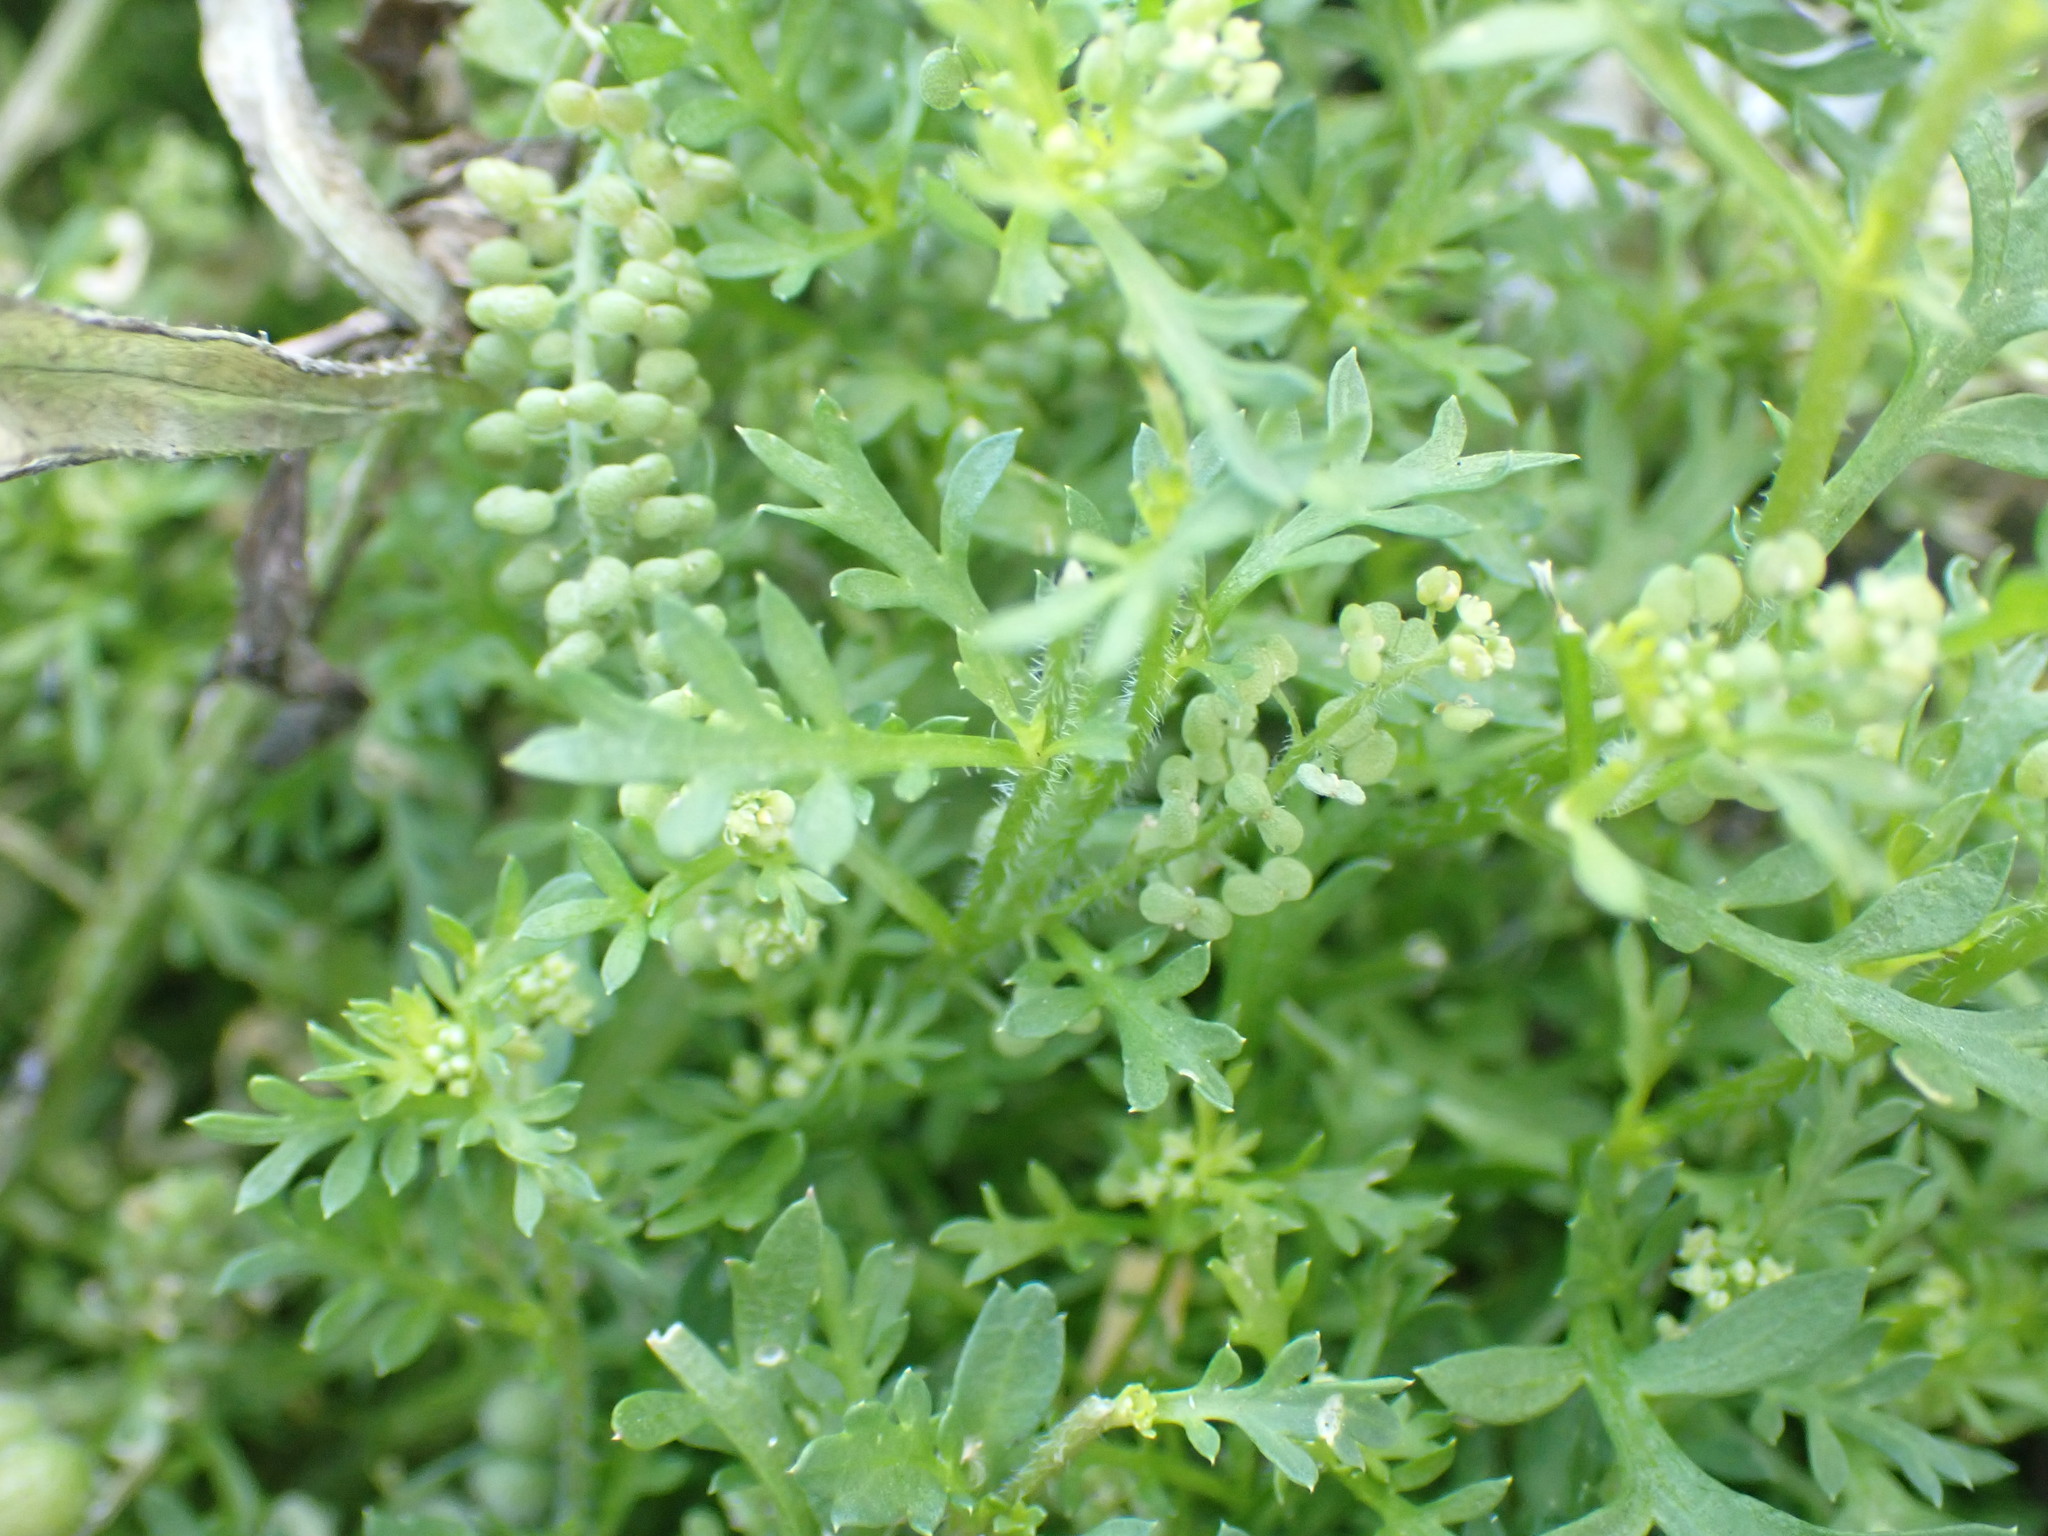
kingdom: Plantae
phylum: Tracheophyta
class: Magnoliopsida
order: Brassicales
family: Brassicaceae
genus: Lepidium
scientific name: Lepidium didymum
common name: Lesser swinecress
